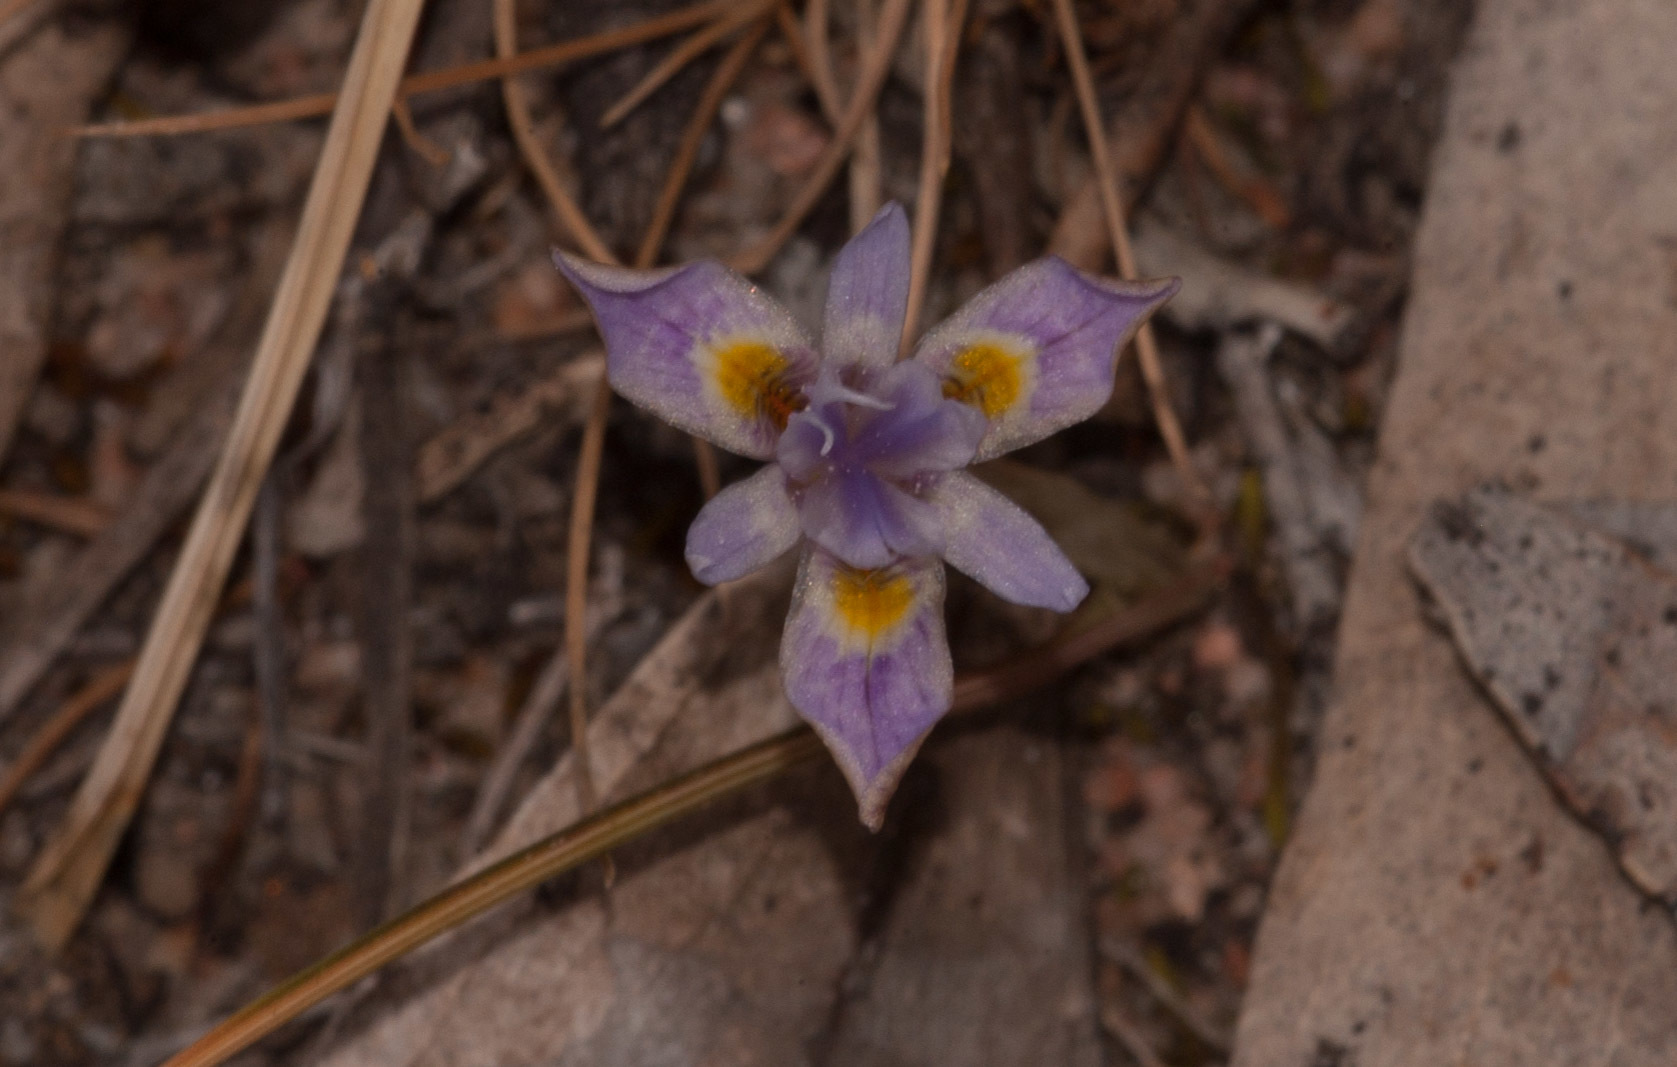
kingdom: Plantae
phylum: Tracheophyta
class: Liliopsida
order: Asparagales
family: Iridaceae
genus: Moraea
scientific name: Moraea setifolia
